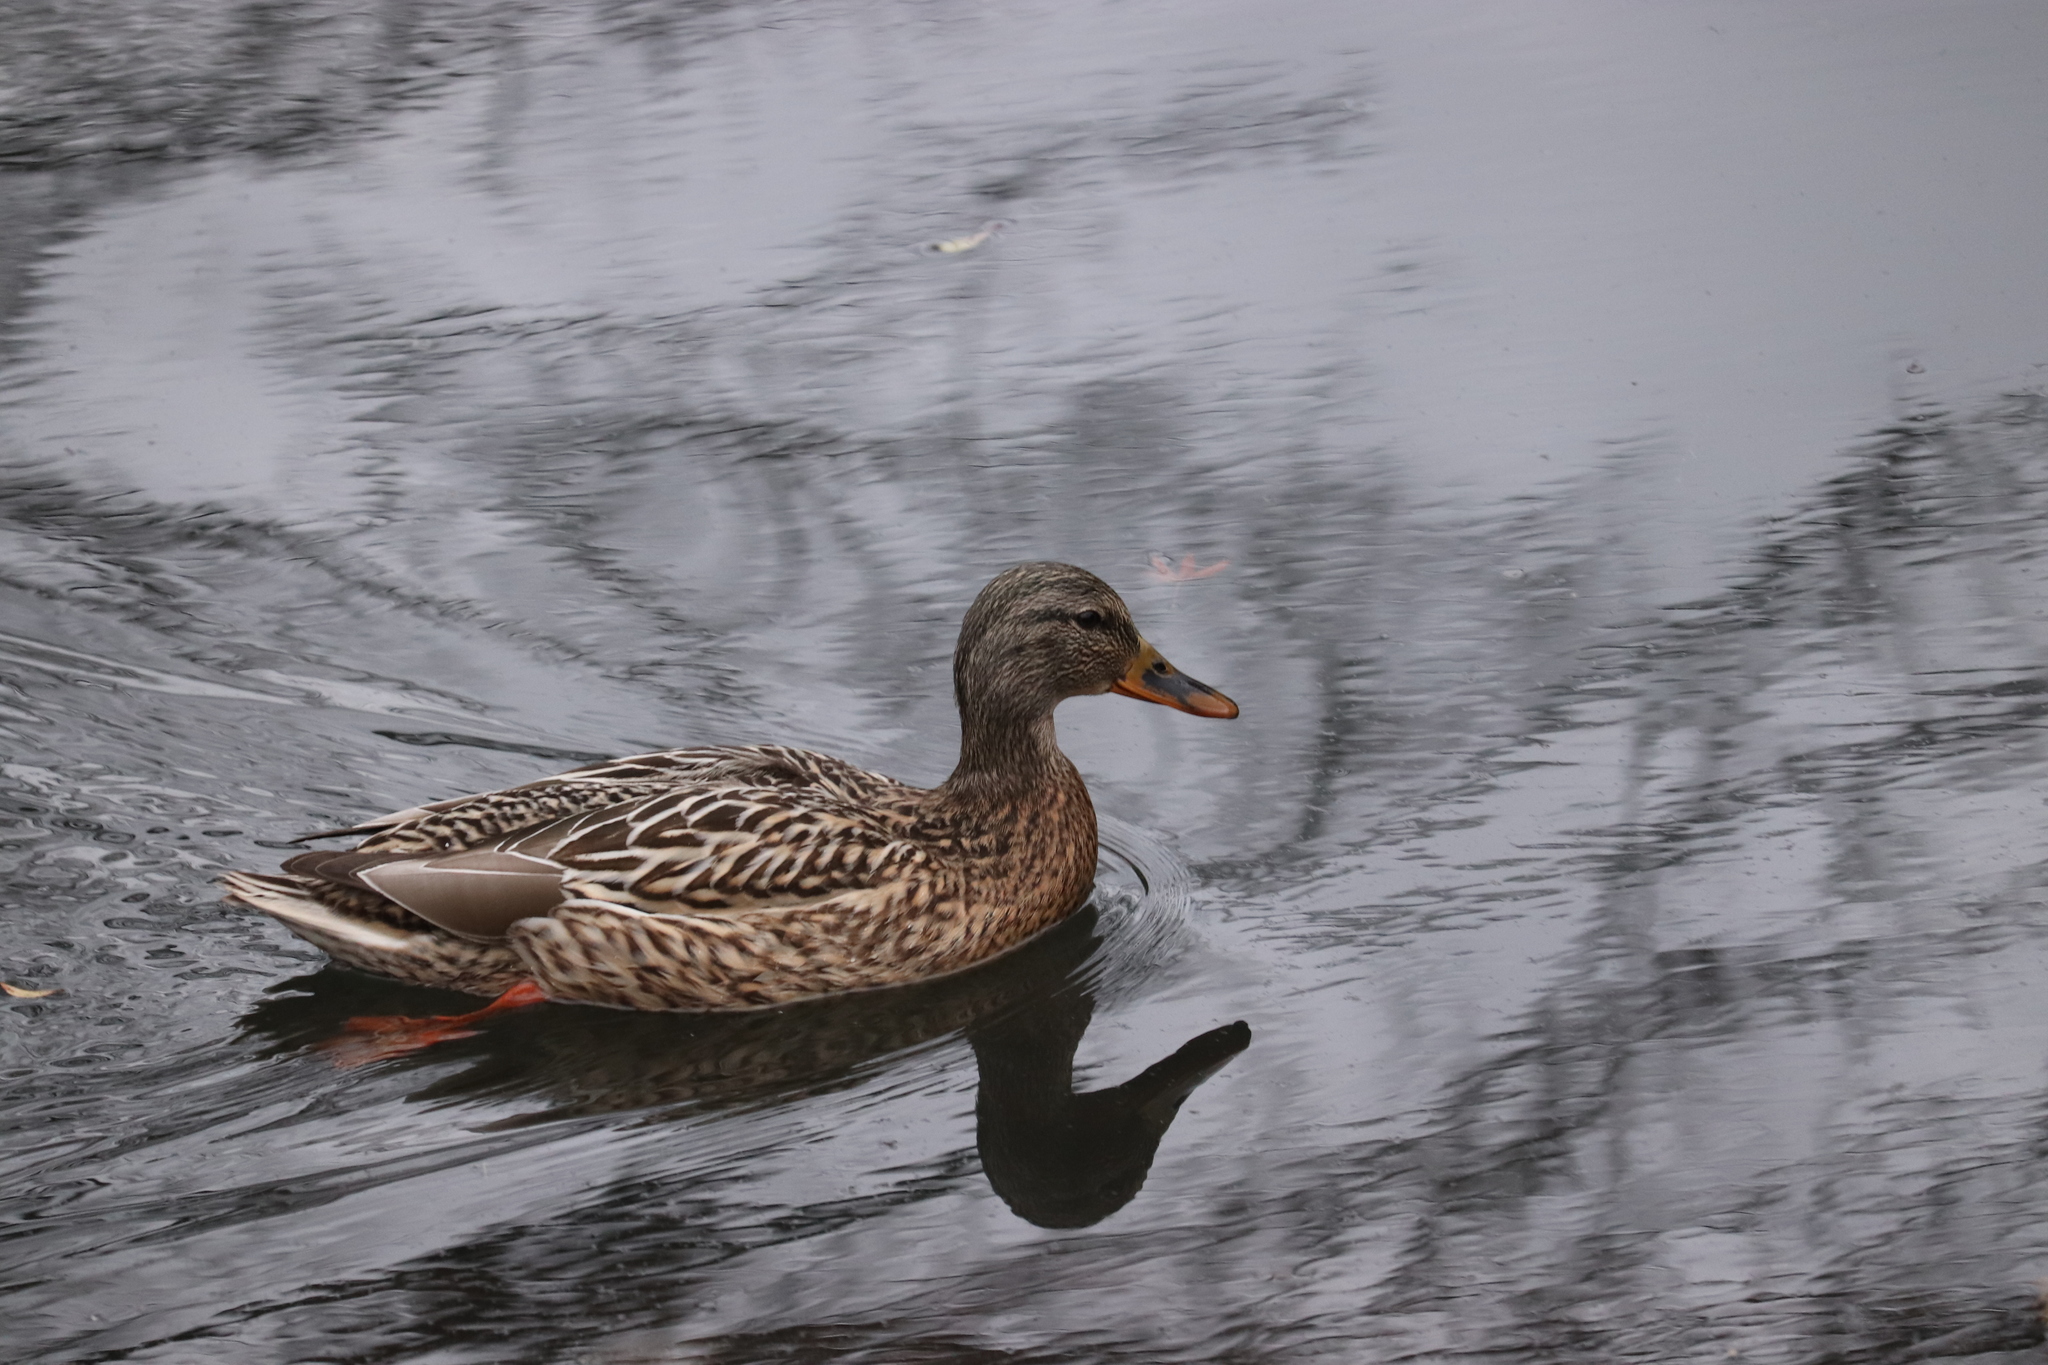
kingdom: Animalia
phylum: Chordata
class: Aves
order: Anseriformes
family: Anatidae
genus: Anas
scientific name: Anas platyrhynchos
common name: Mallard
